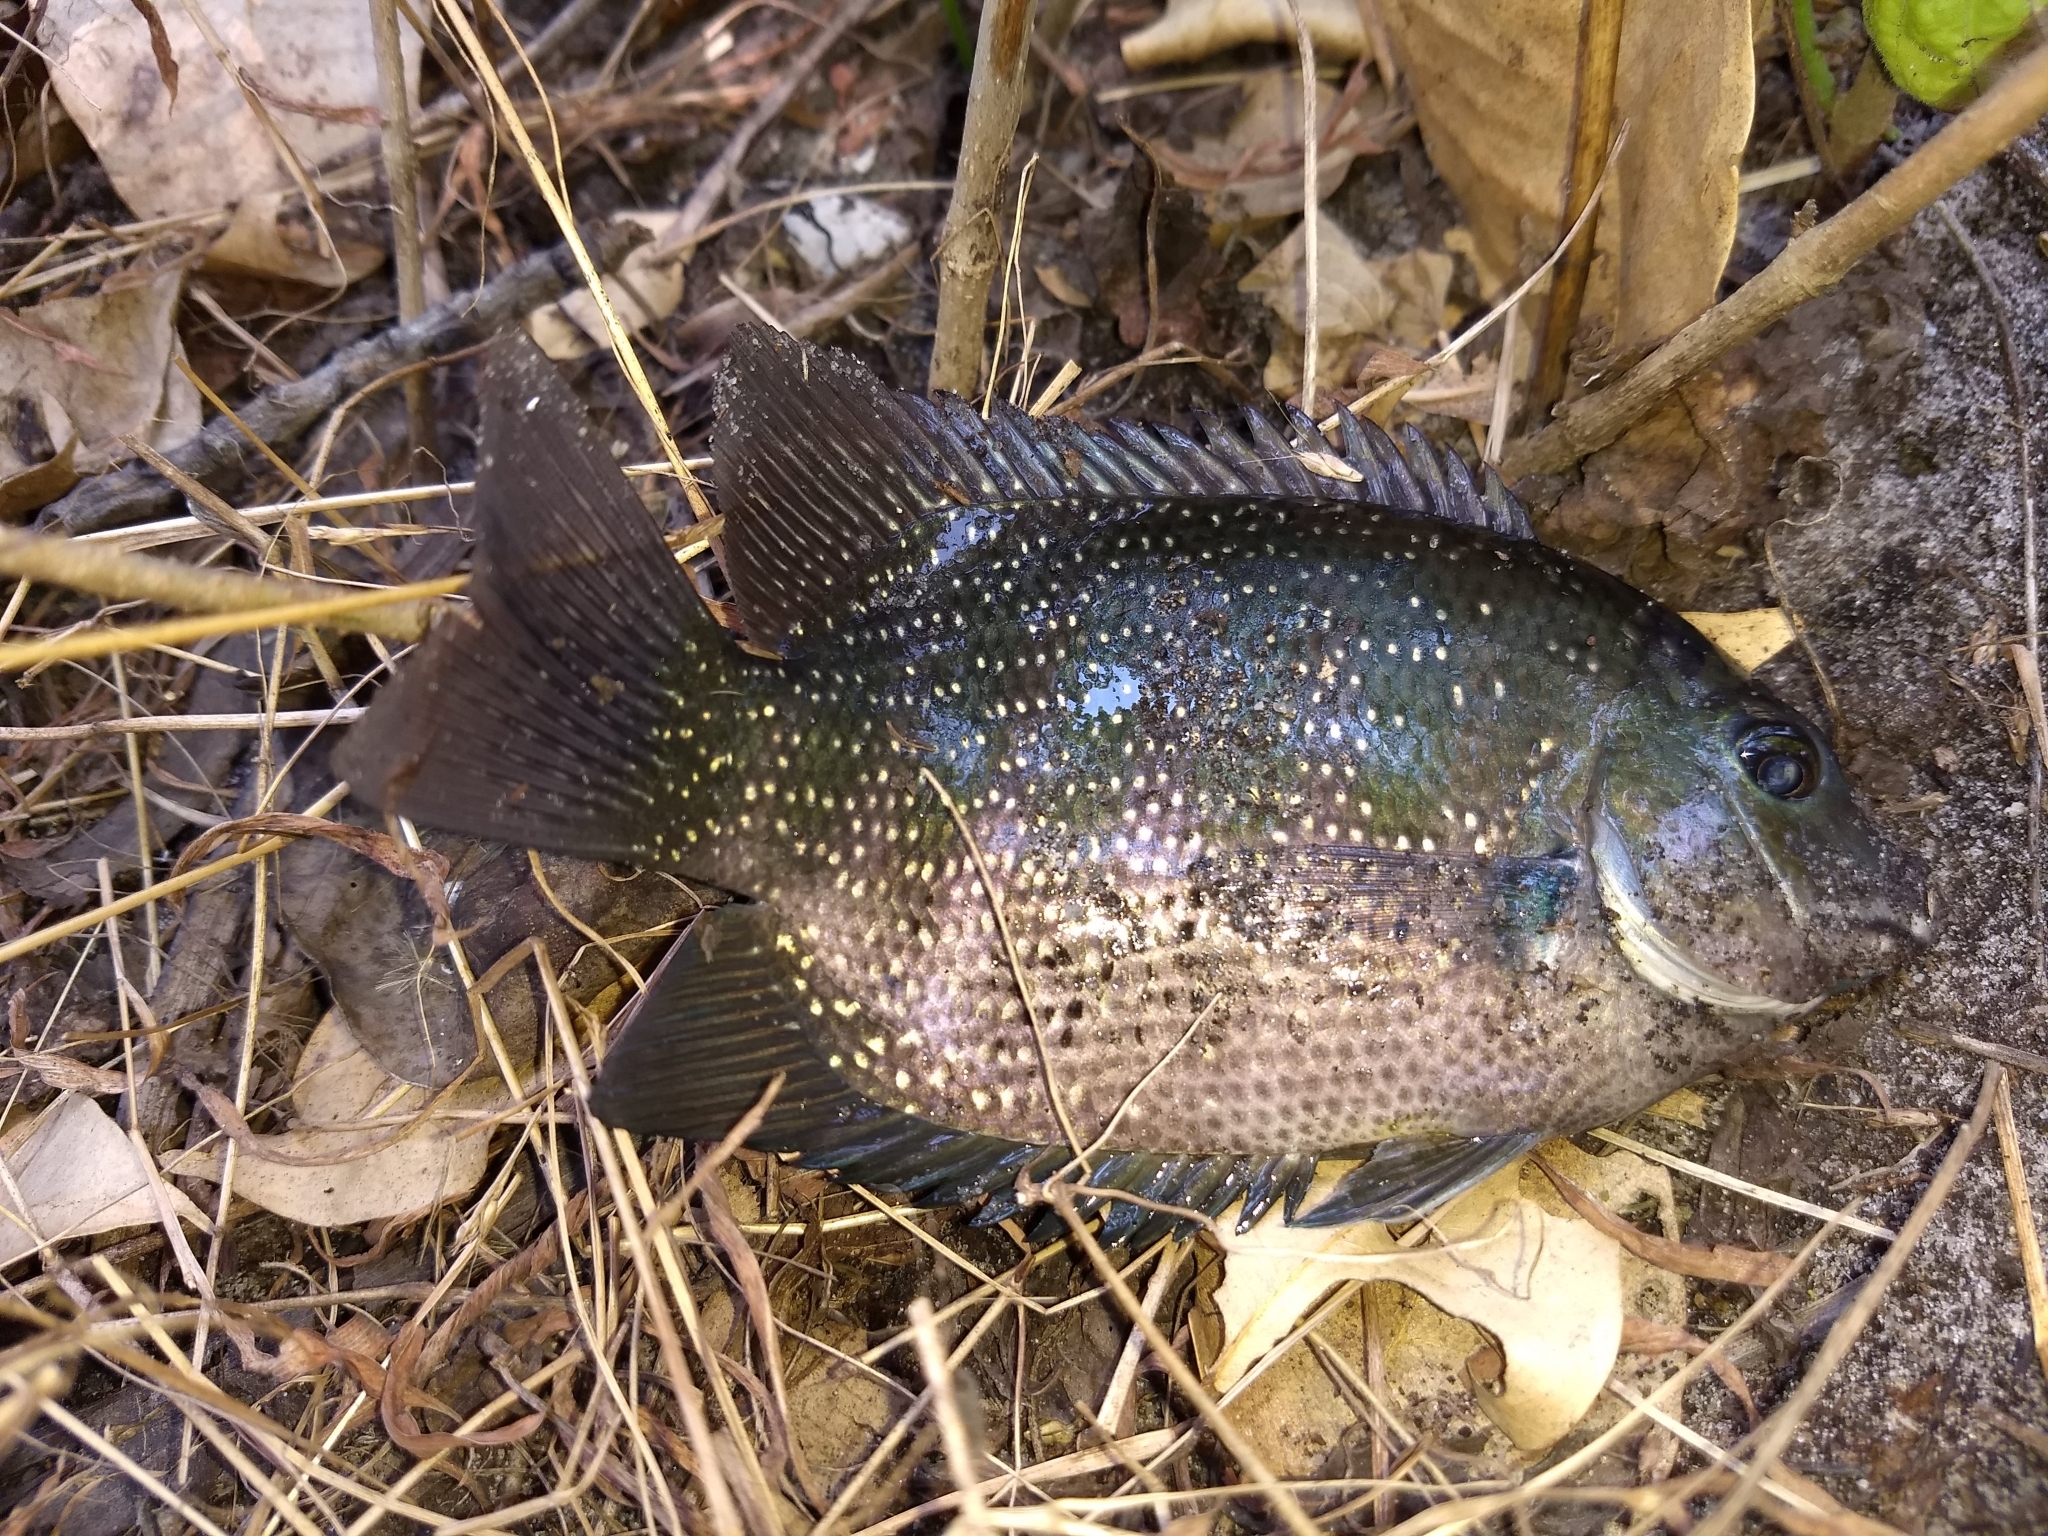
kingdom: Animalia
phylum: Chordata
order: Perciformes
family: Cichlidae
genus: Etroplus
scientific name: Etroplus suratensis
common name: Green chromide
